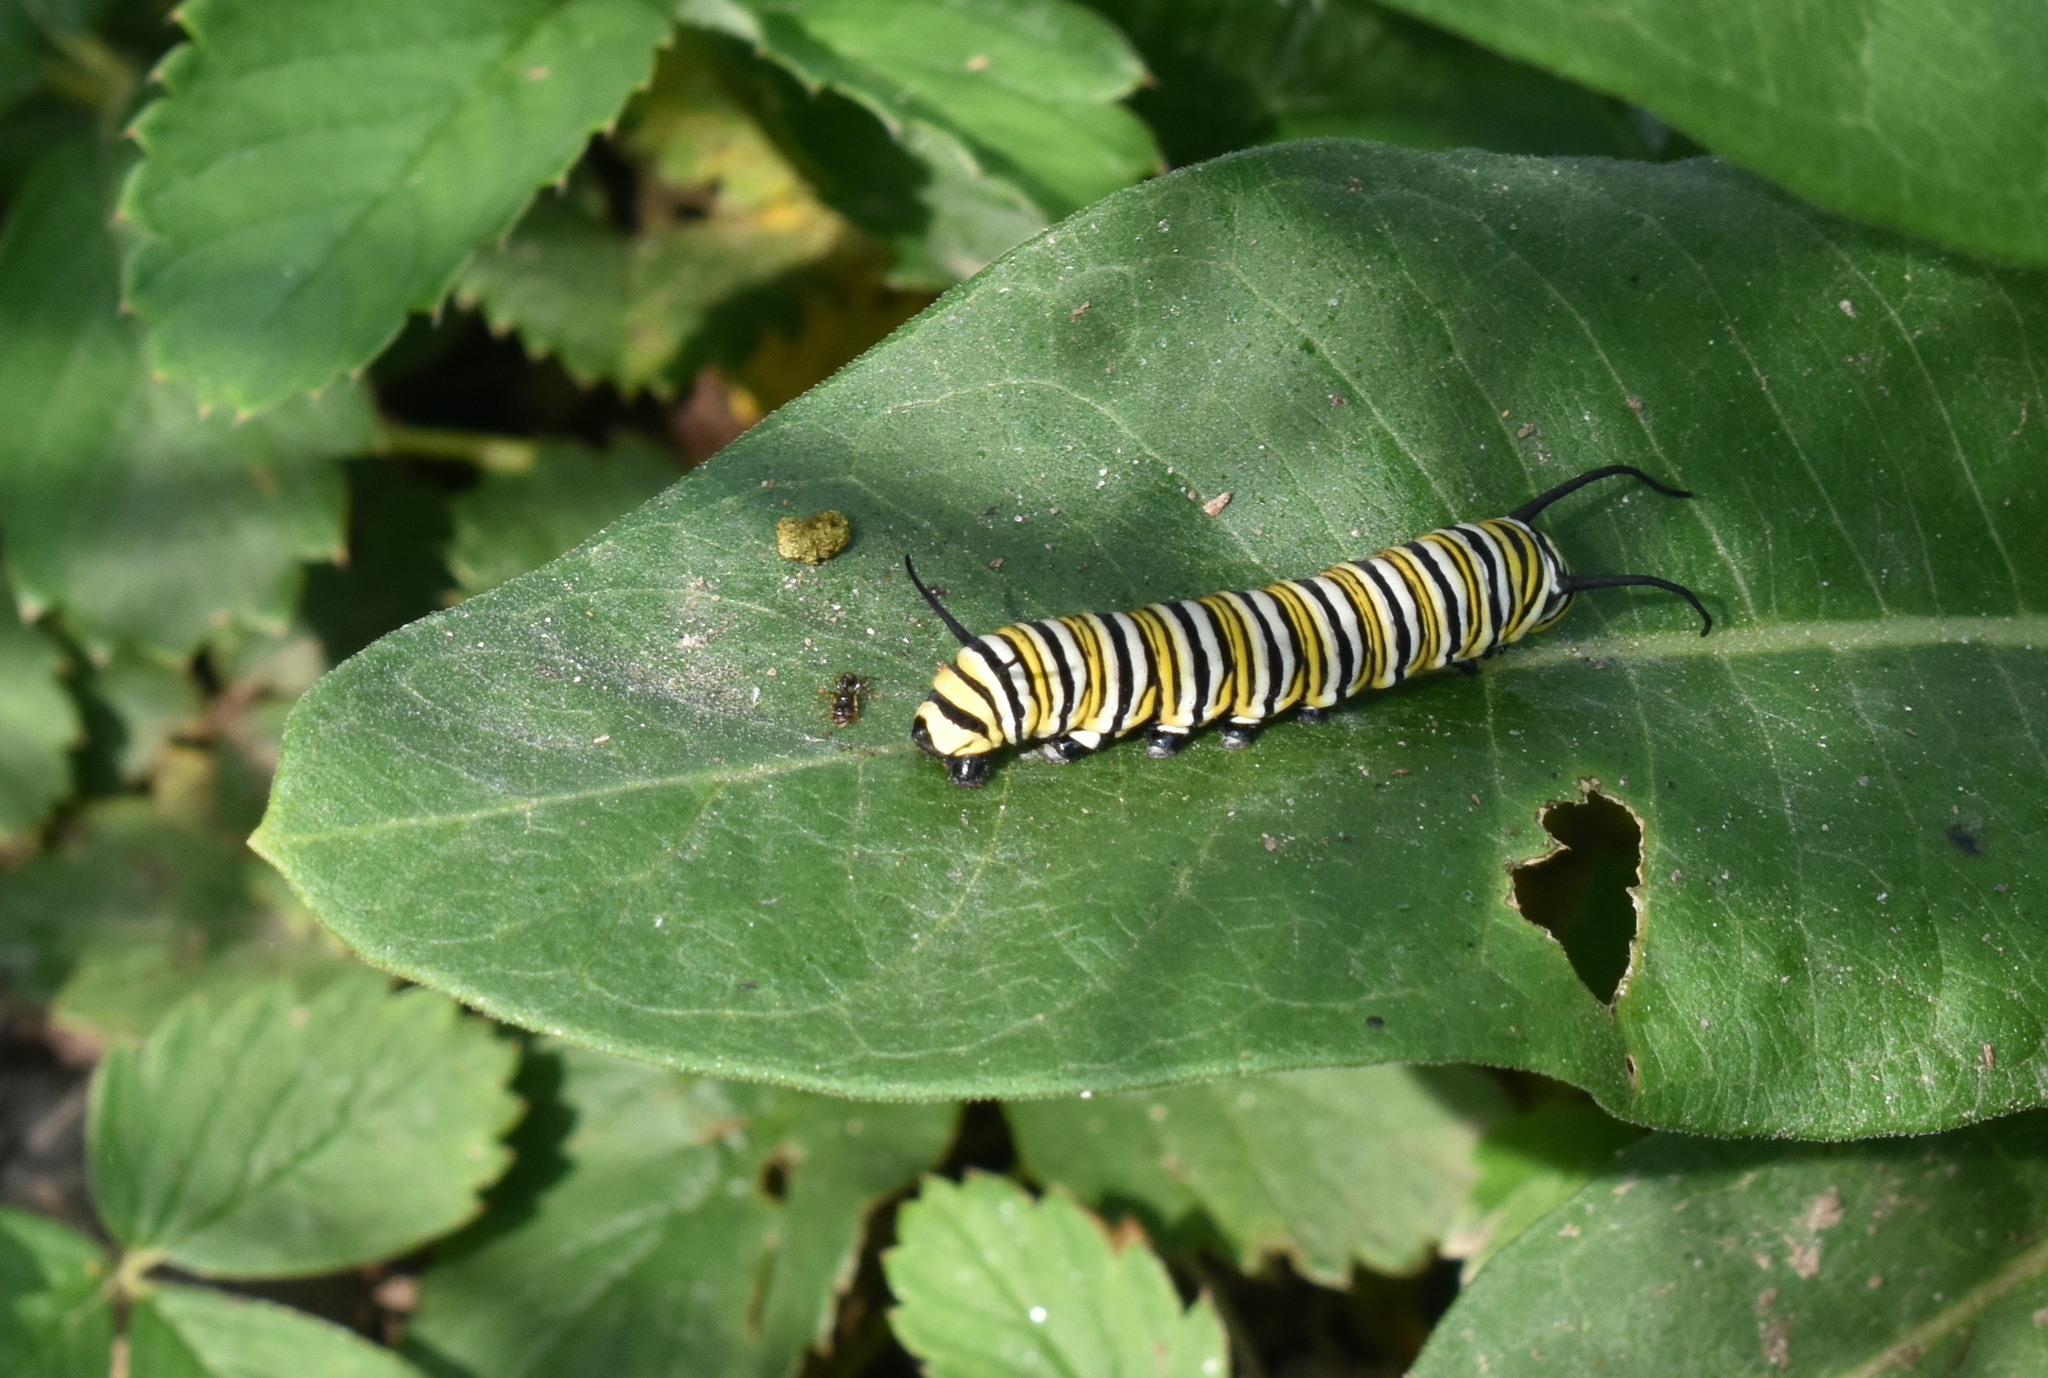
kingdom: Animalia
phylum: Arthropoda
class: Insecta
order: Lepidoptera
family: Nymphalidae
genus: Danaus
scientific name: Danaus plexippus
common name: Monarch
